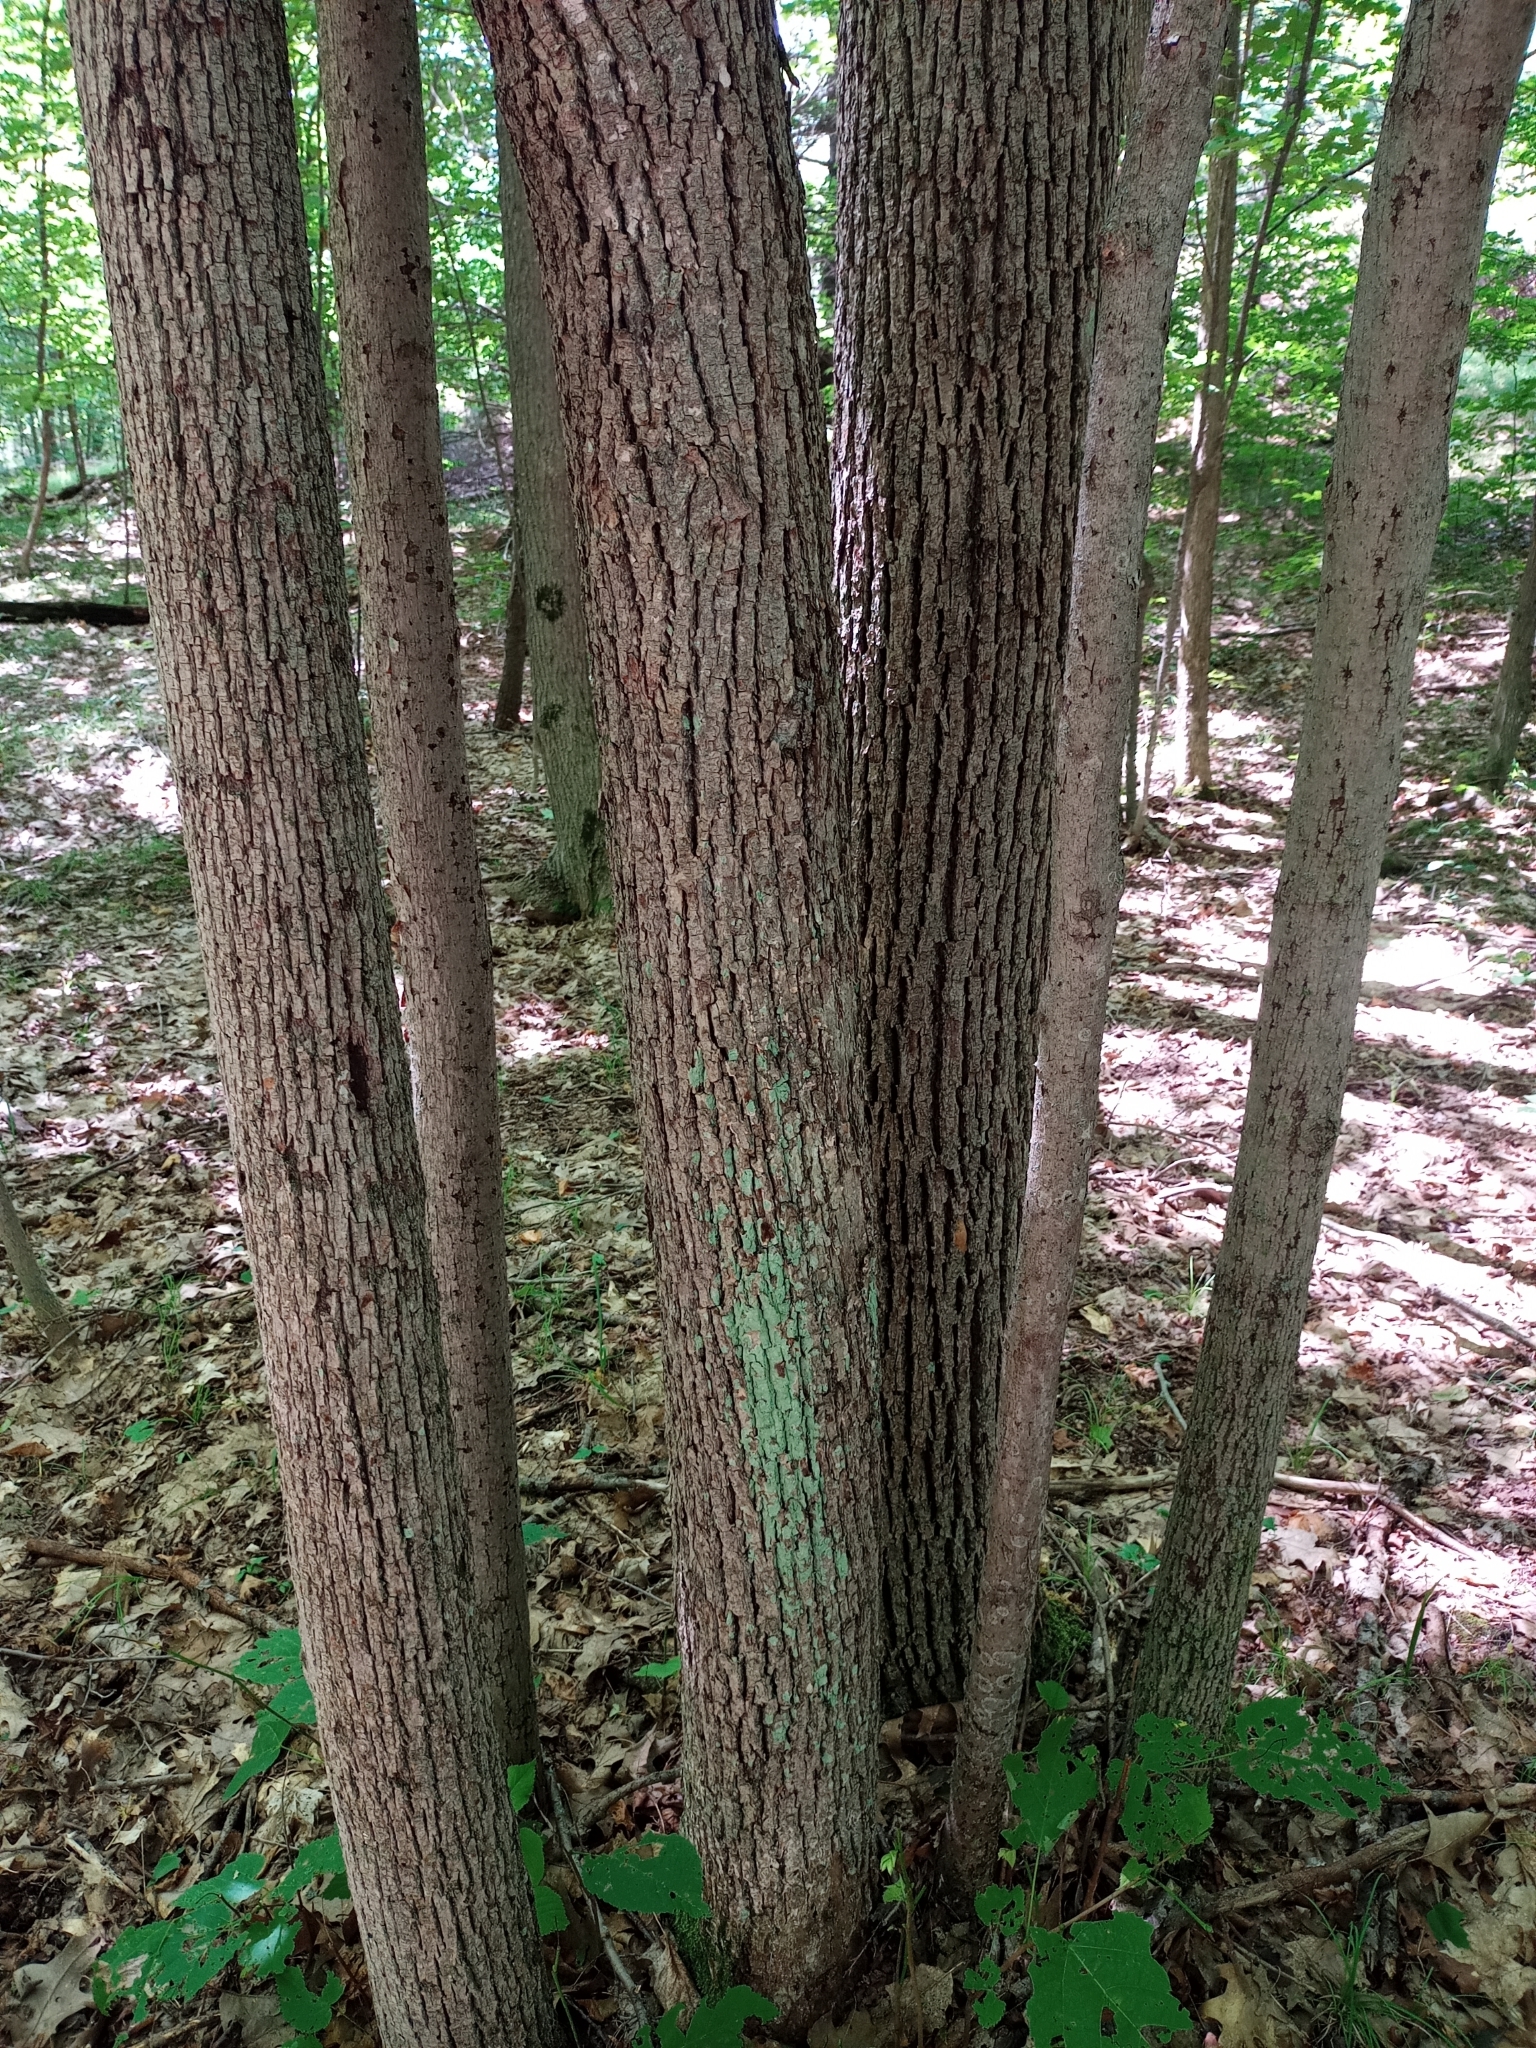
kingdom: Plantae
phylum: Tracheophyta
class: Magnoliopsida
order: Malvales
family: Malvaceae
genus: Tilia
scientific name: Tilia americana
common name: Basswood
